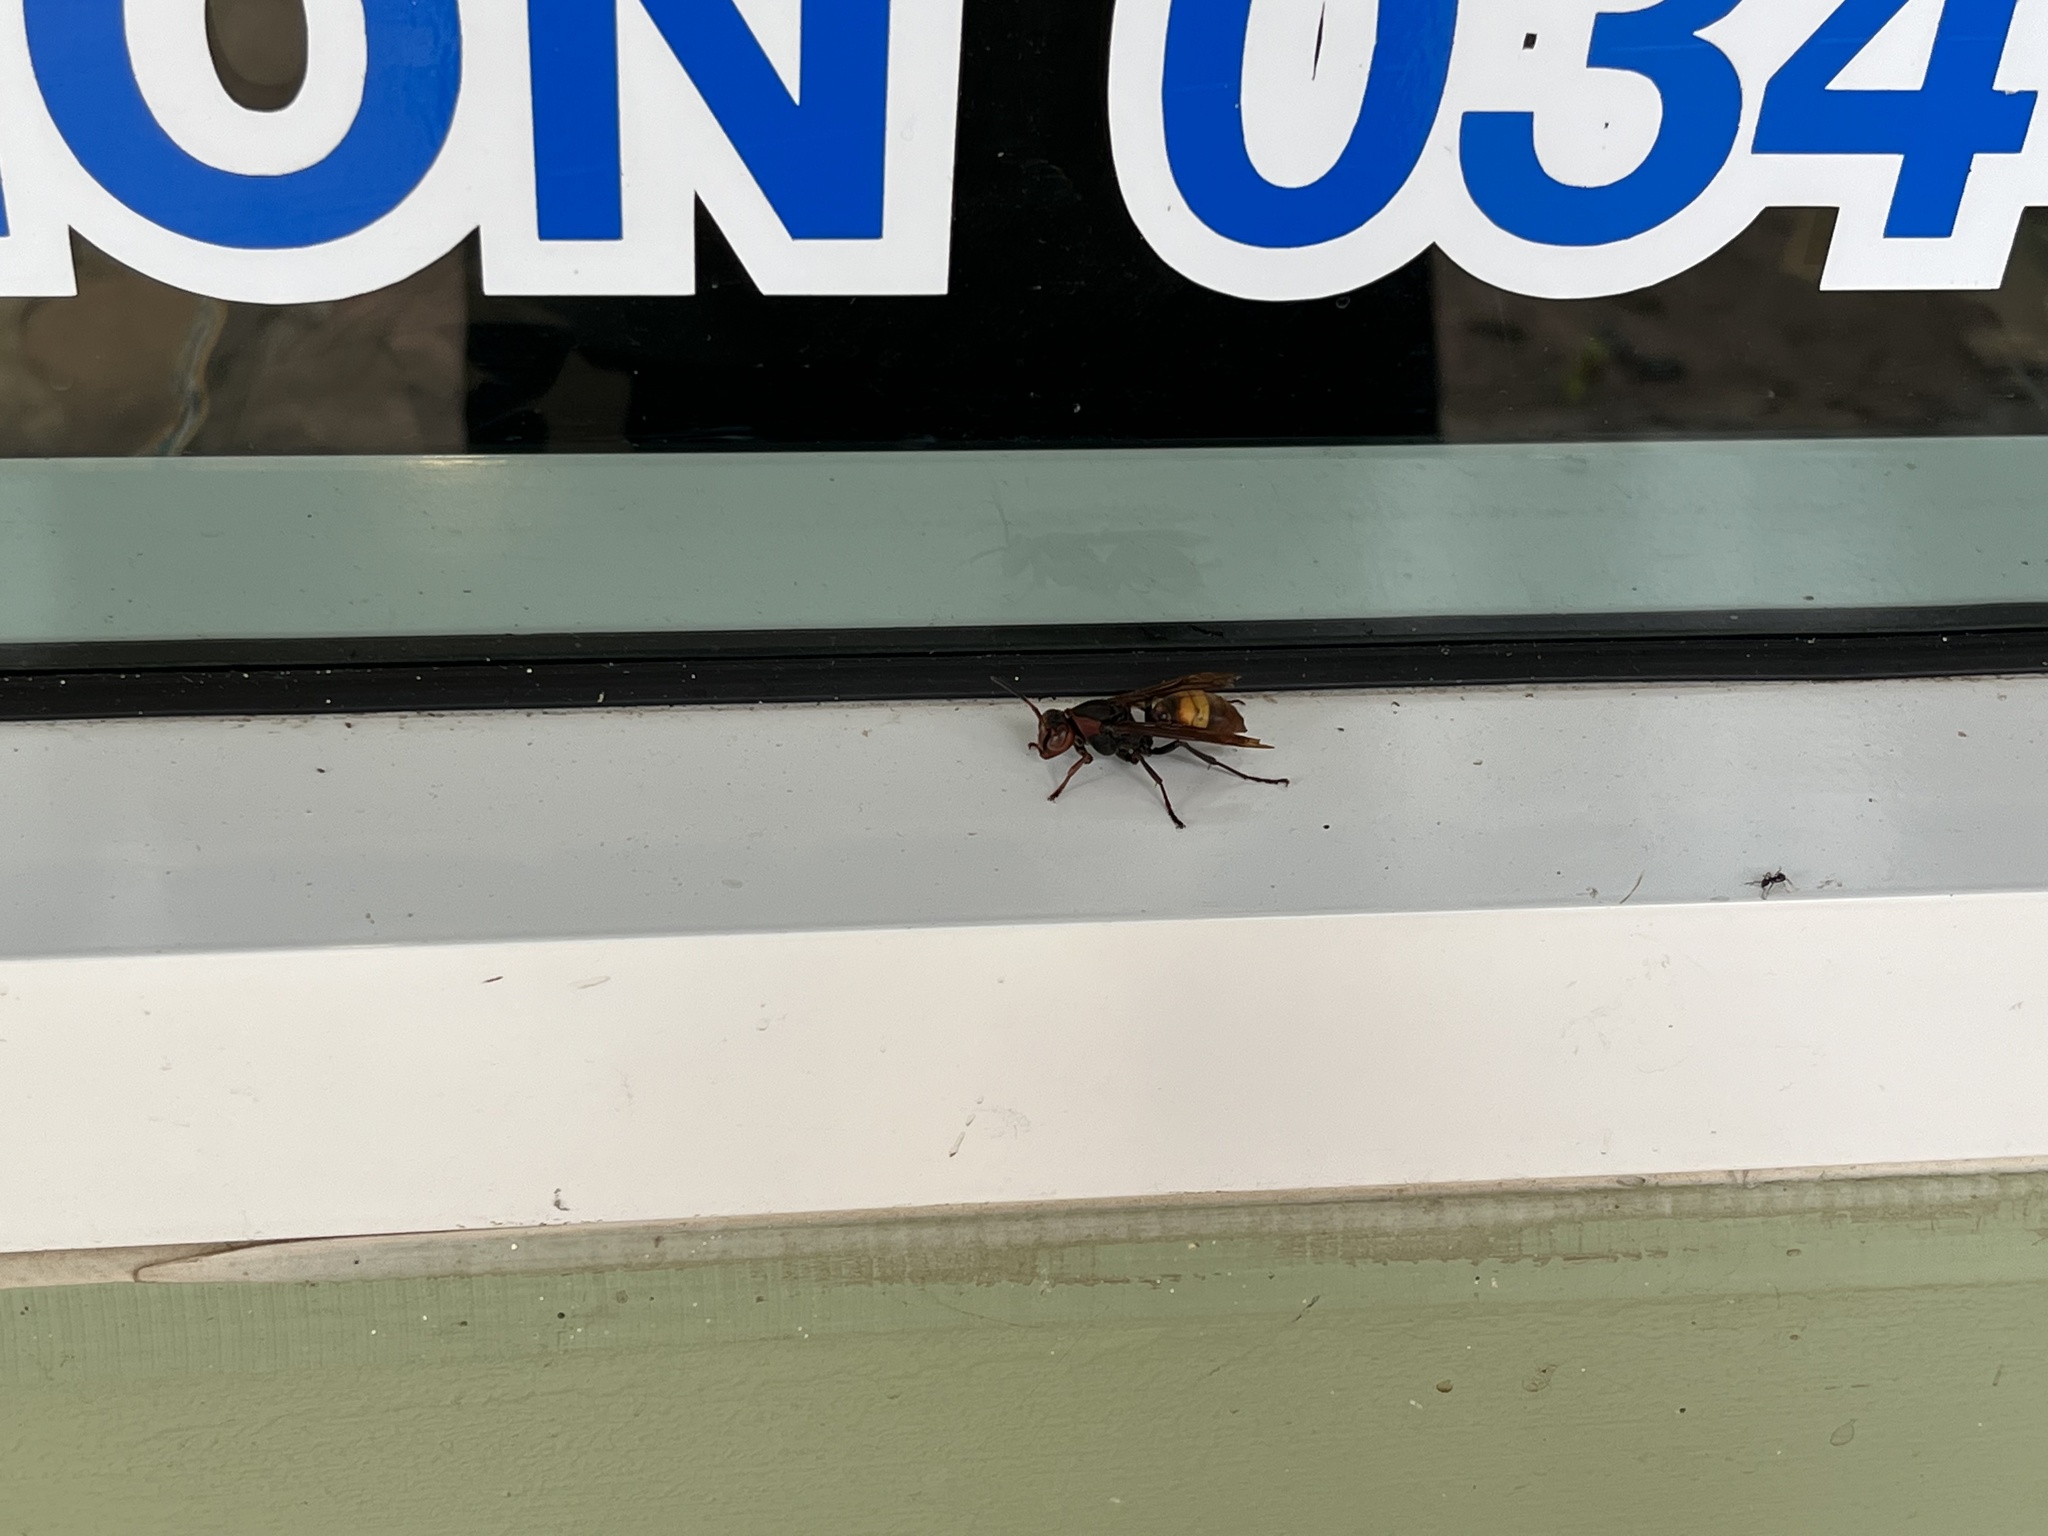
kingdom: Animalia
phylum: Arthropoda
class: Insecta
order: Hymenoptera
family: Eumenidae
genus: Polistes
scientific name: Polistes sagittarius
